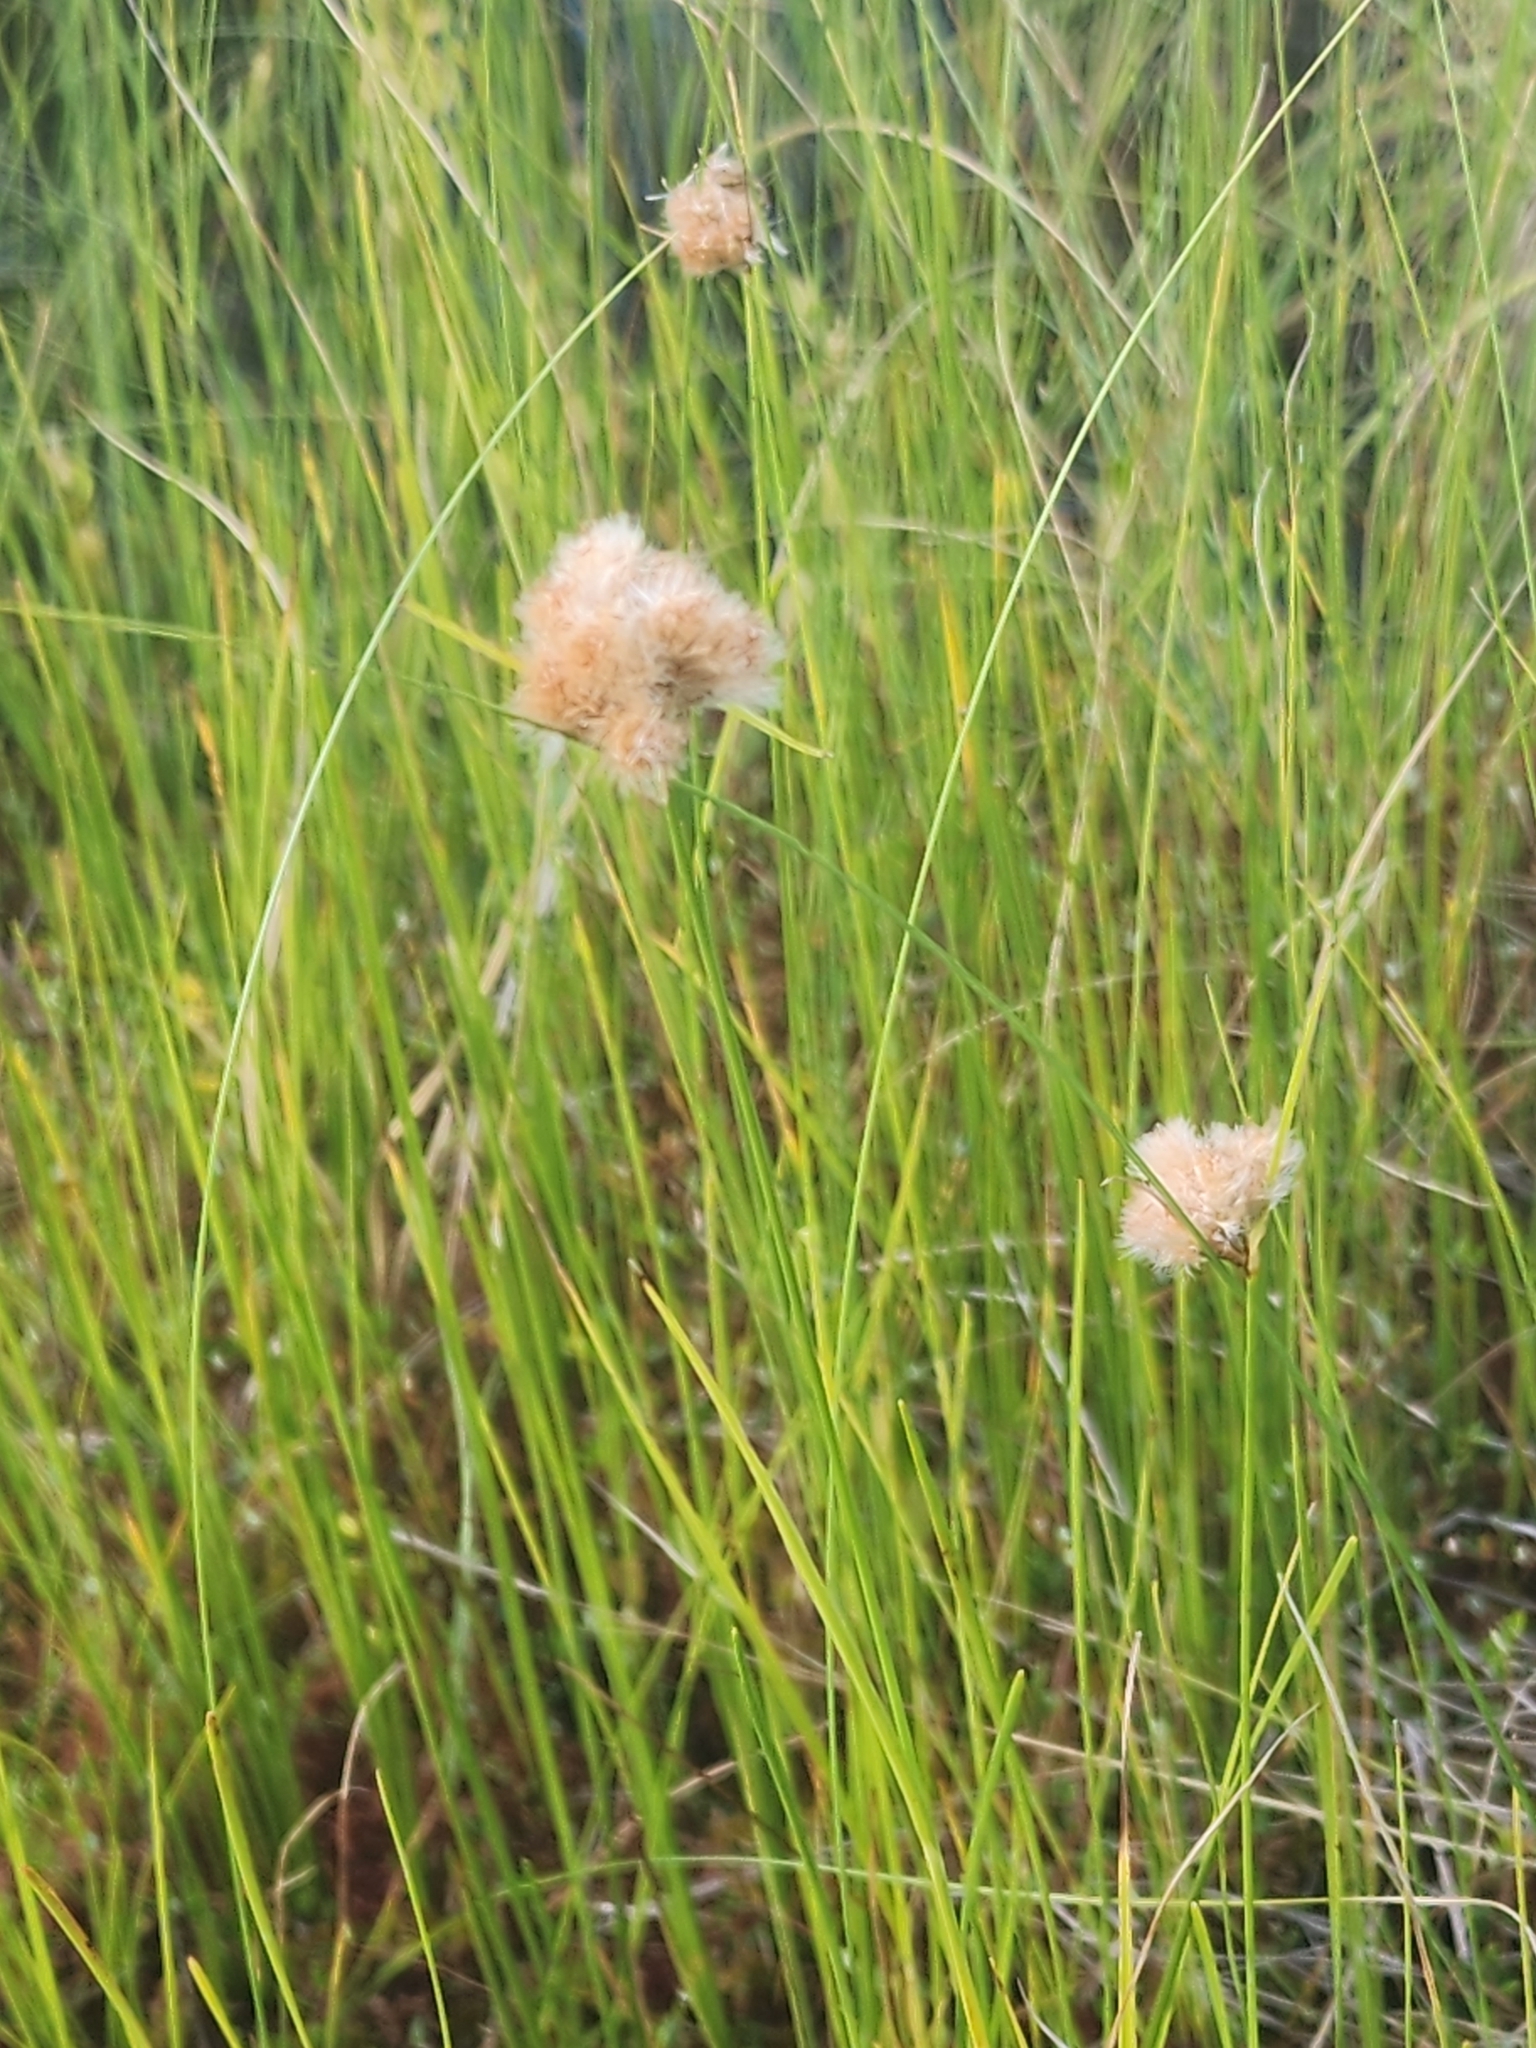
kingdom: Plantae
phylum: Tracheophyta
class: Liliopsida
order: Poales
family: Cyperaceae
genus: Eriophorum
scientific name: Eriophorum virginicum
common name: Tawny cottongrass
